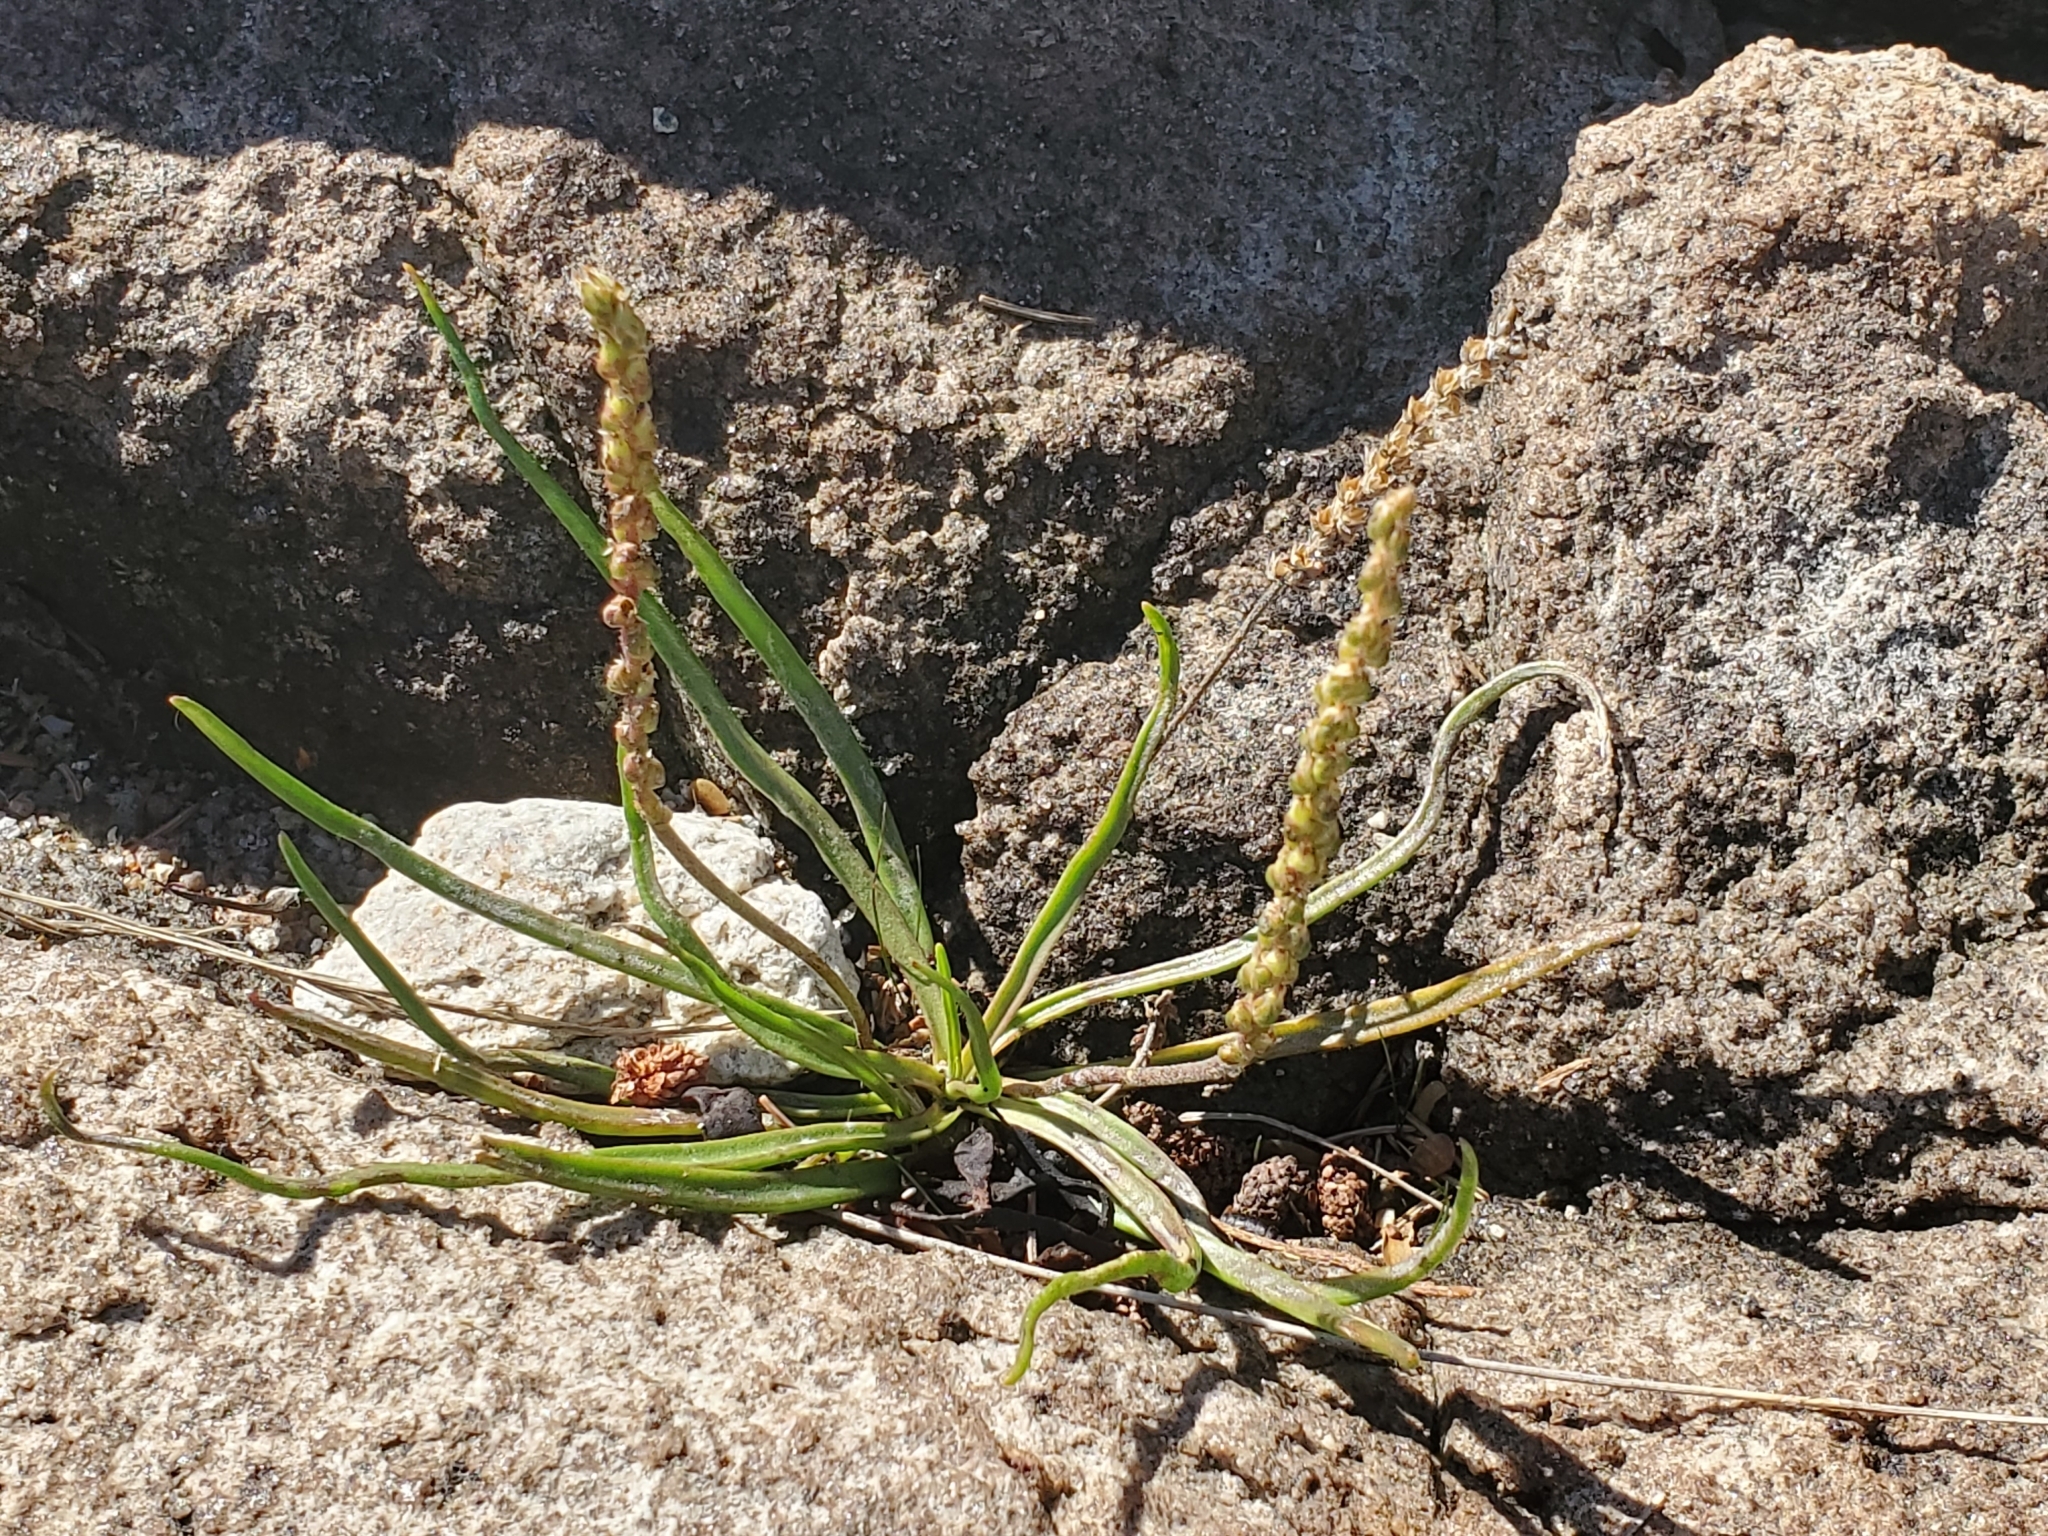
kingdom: Plantae
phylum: Tracheophyta
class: Magnoliopsida
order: Lamiales
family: Plantaginaceae
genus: Plantago
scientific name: Plantago maritima
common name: Sea plantain
